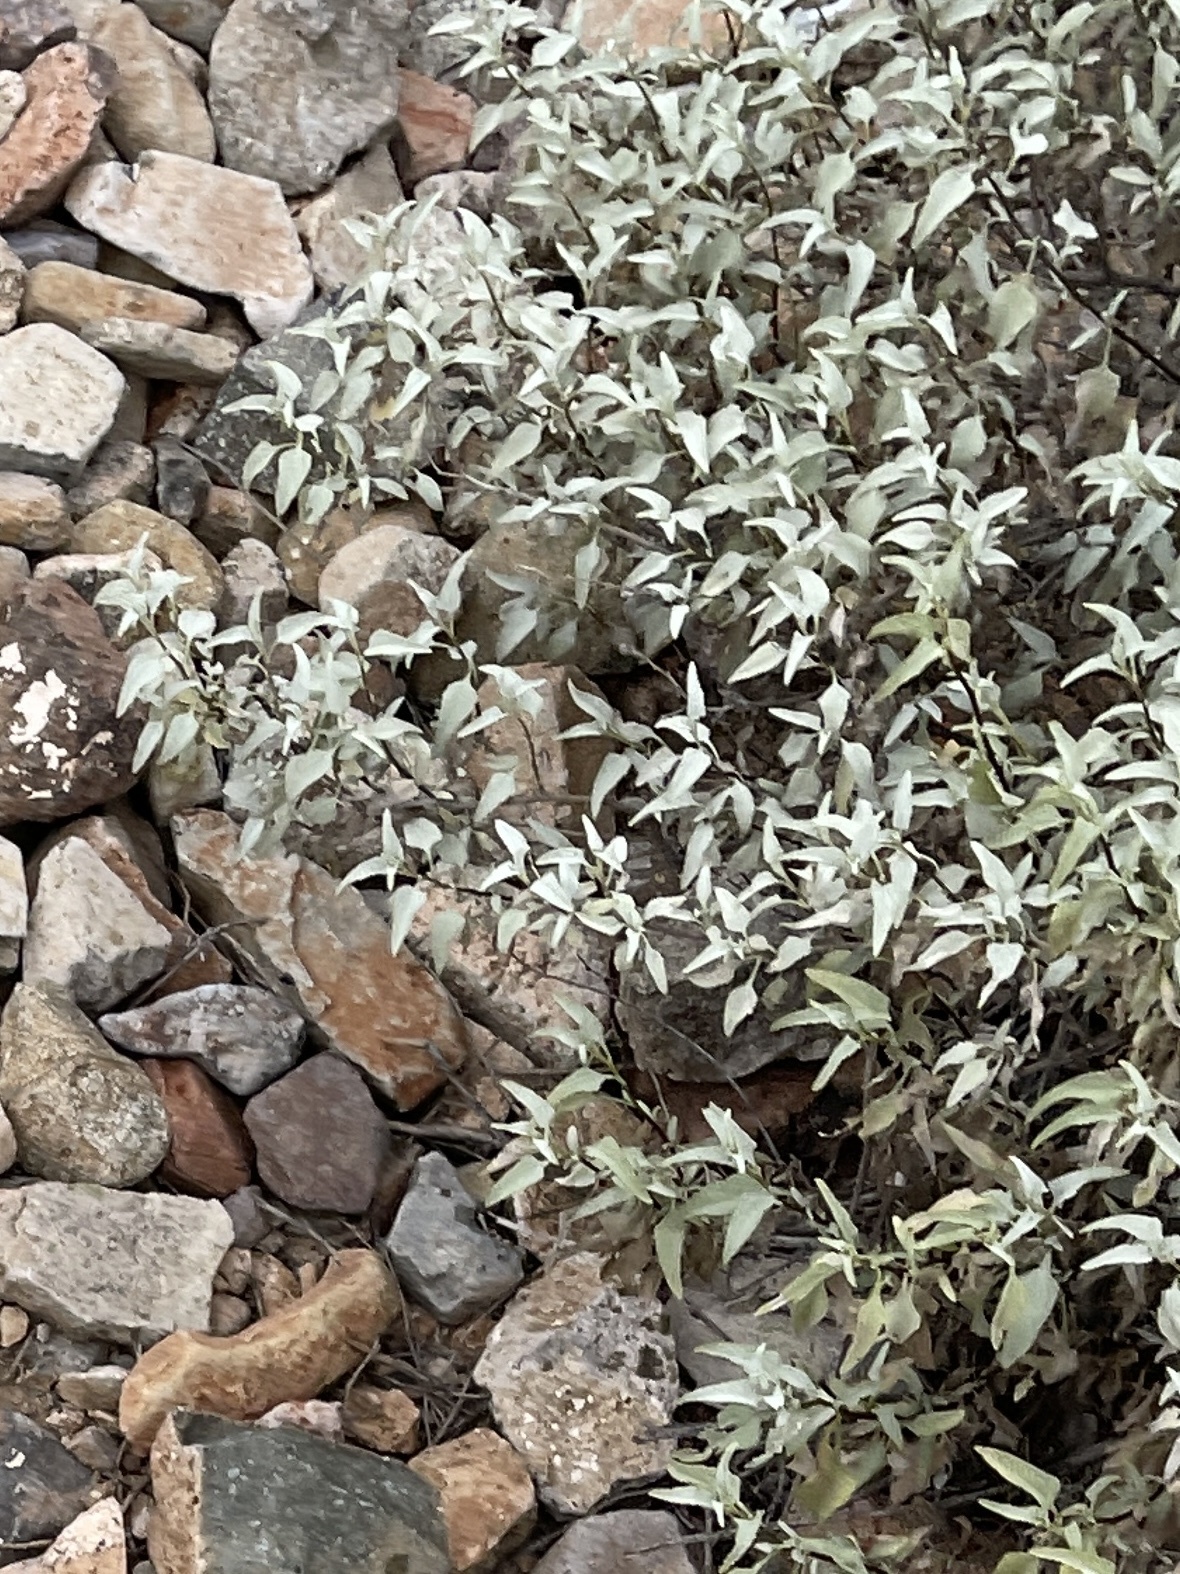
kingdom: Plantae
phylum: Tracheophyta
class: Magnoliopsida
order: Asterales
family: Asteraceae
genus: Ambrosia
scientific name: Ambrosia deltoidea
